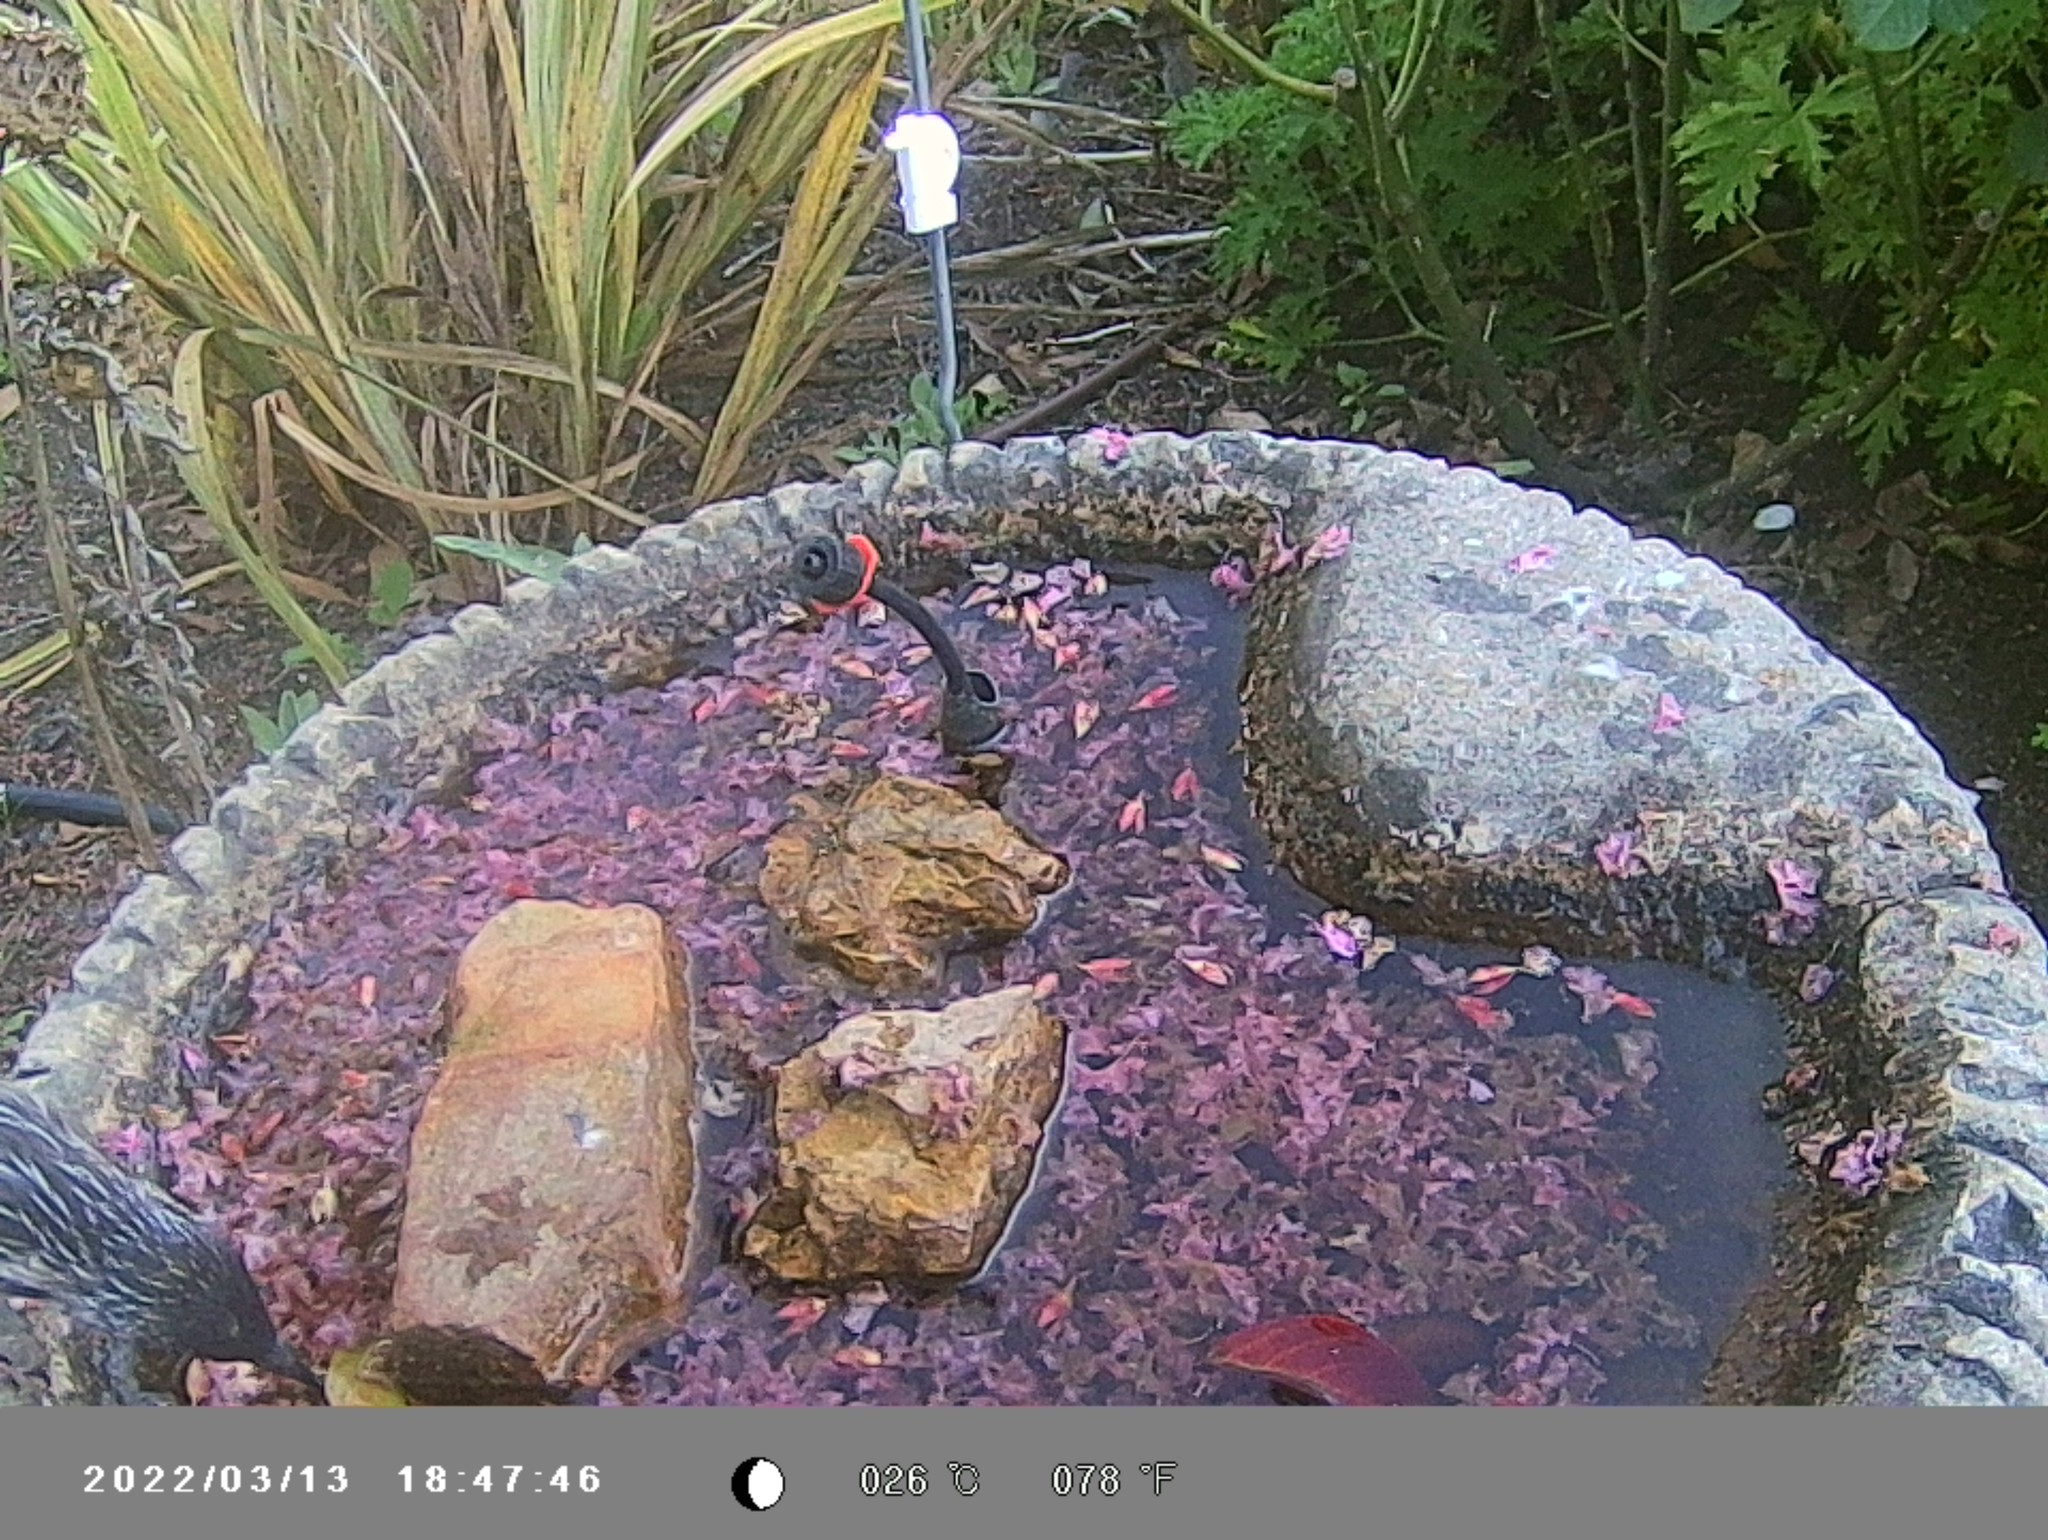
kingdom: Animalia
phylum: Chordata
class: Aves
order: Passeriformes
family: Meliphagidae
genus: Anthochaera
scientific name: Anthochaera carunculata
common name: Red wattlebird
